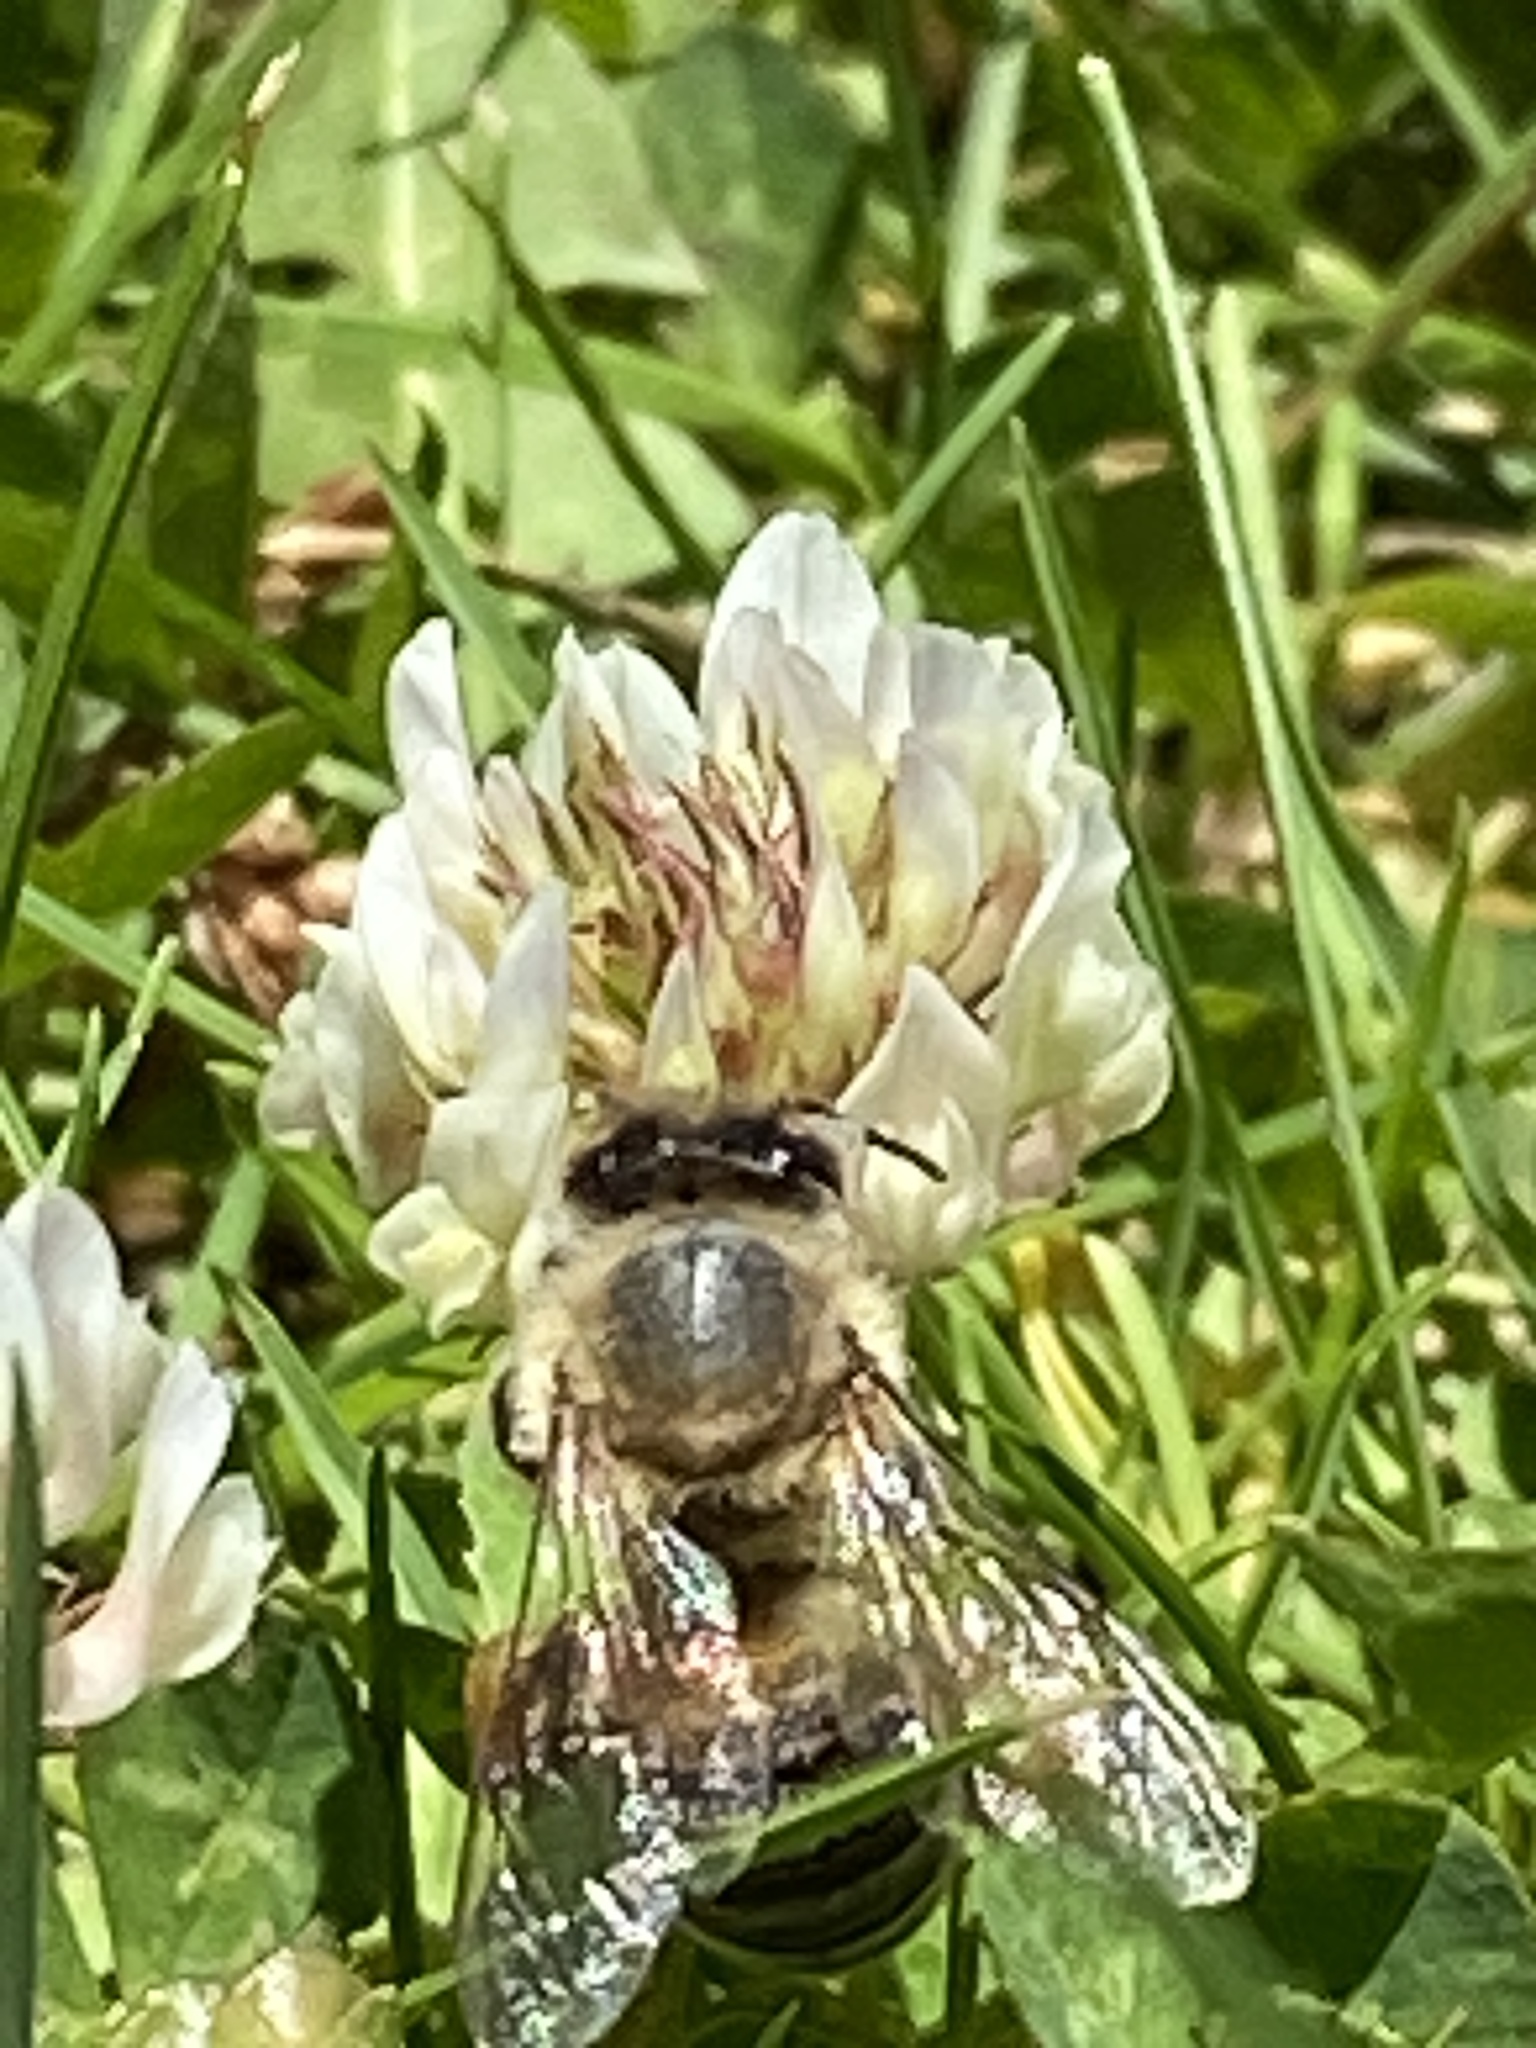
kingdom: Animalia
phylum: Arthropoda
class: Insecta
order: Hymenoptera
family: Apidae
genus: Apis
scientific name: Apis mellifera
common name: Honey bee
